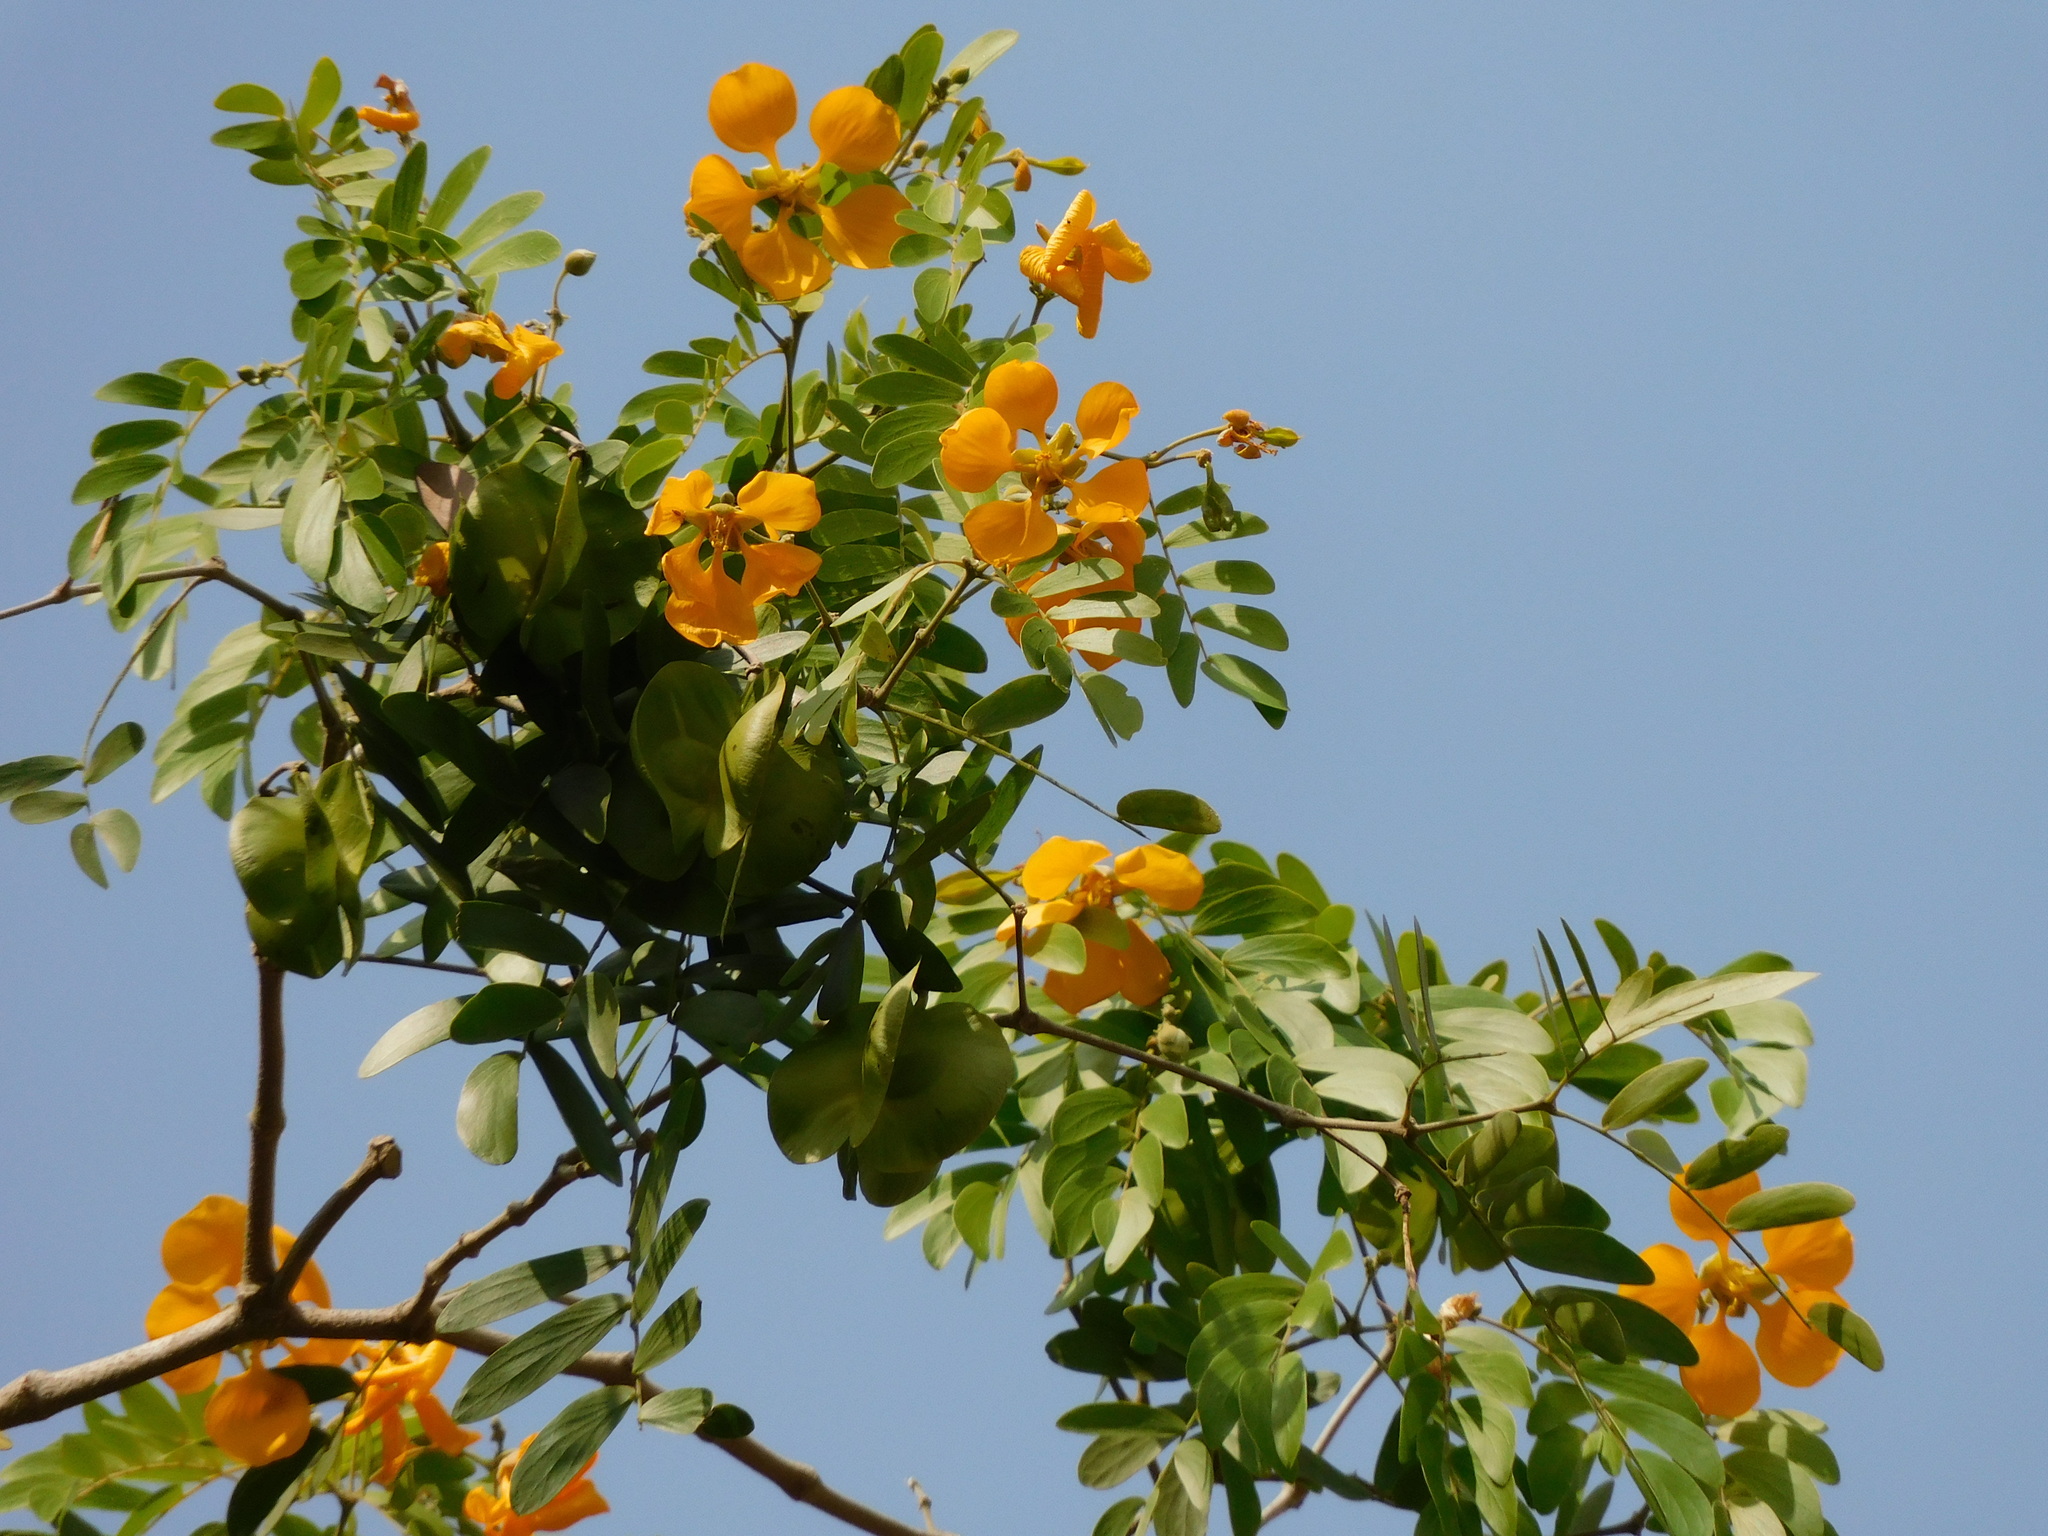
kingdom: Plantae
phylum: Tracheophyta
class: Magnoliopsida
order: Zygophyllales
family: Zygophyllaceae
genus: Gonopterodendron
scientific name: Gonopterodendron arboreum
